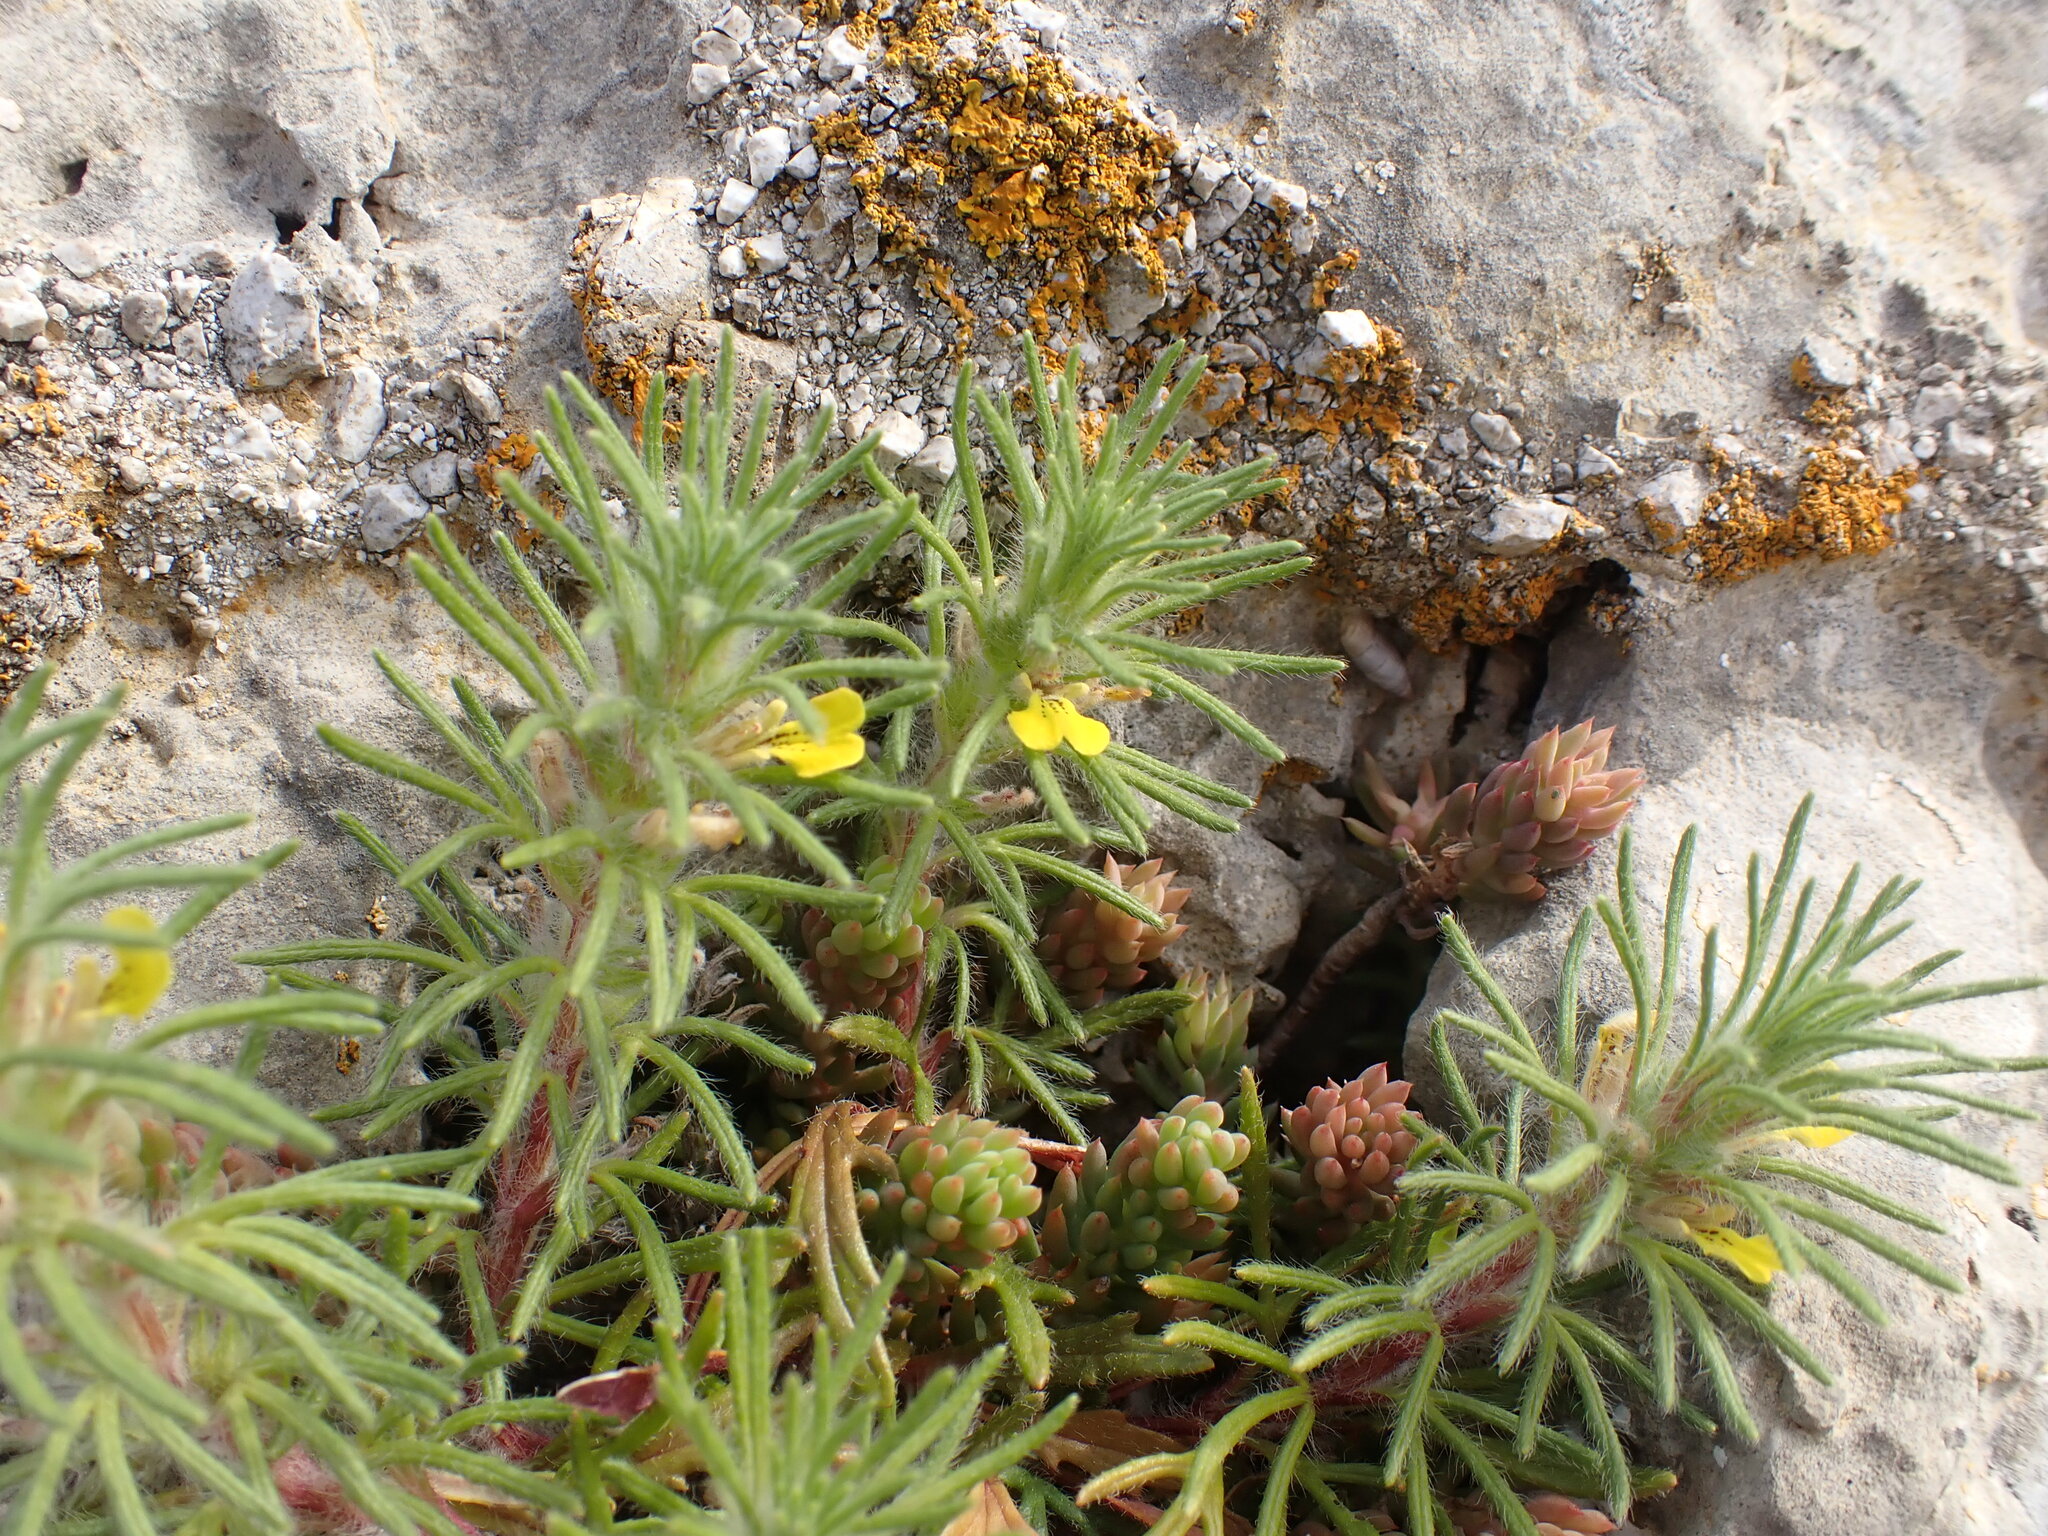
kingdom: Plantae
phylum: Tracheophyta
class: Magnoliopsida
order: Lamiales
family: Lamiaceae
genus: Ajuga
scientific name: Ajuga chamaepitys
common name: Ground-pine
